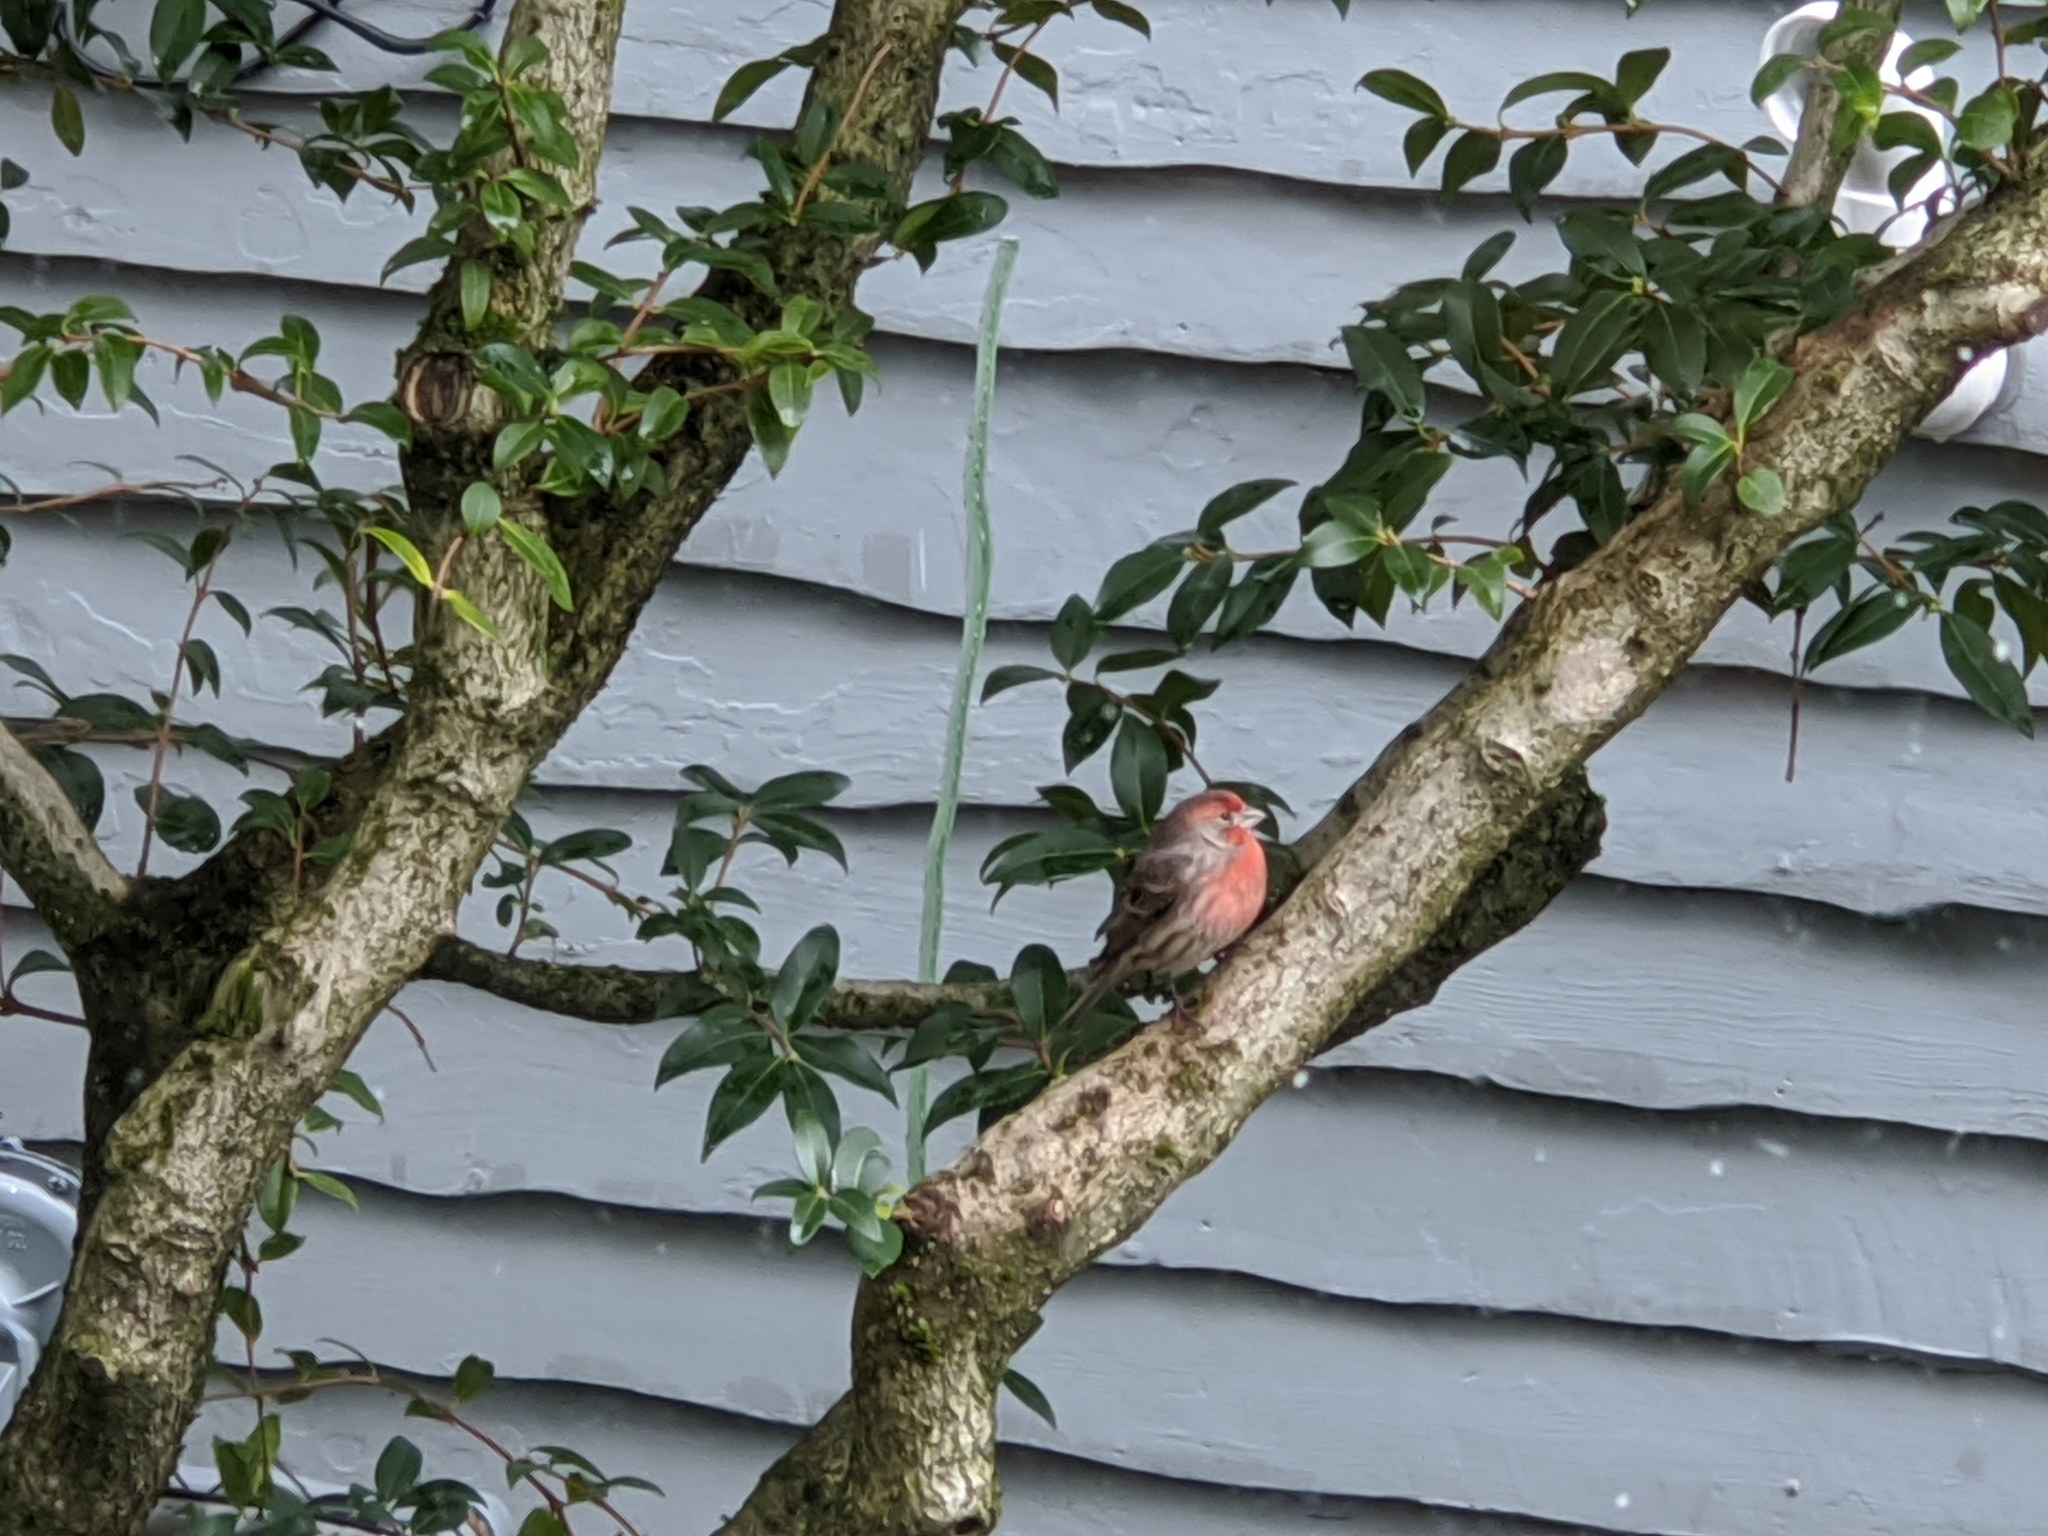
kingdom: Animalia
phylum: Chordata
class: Aves
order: Passeriformes
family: Fringillidae
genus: Haemorhous
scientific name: Haemorhous mexicanus
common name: House finch
